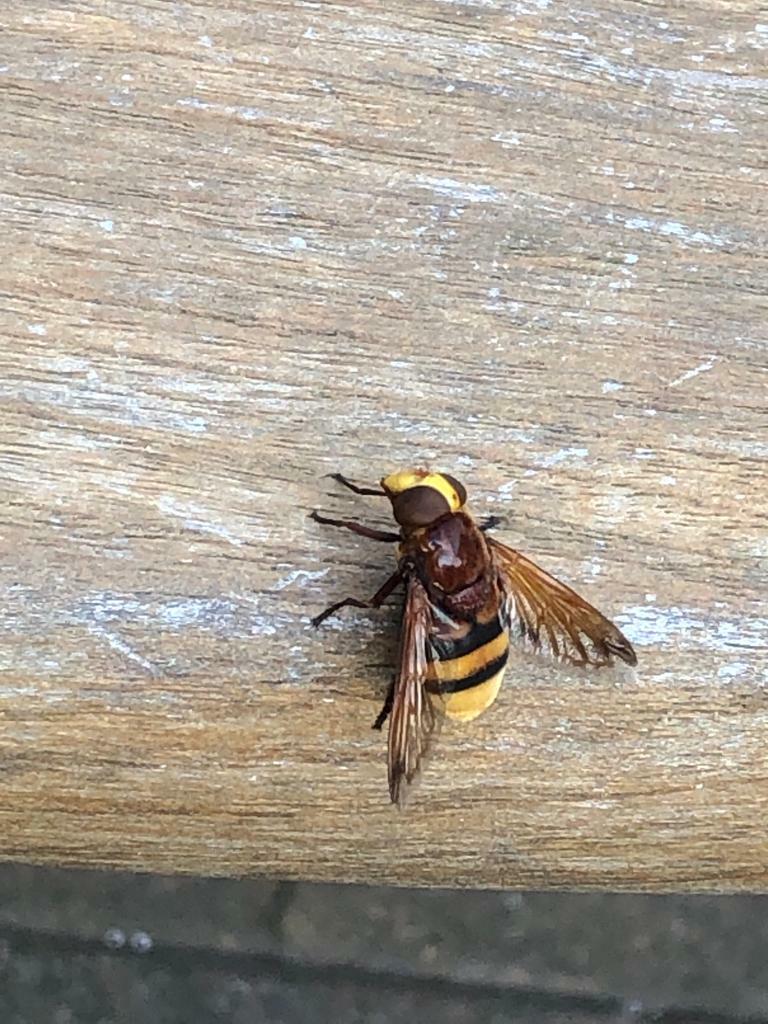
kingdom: Animalia
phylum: Arthropoda
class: Insecta
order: Diptera
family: Syrphidae
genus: Volucella
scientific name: Volucella zonaria
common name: Hornet hoverfly
